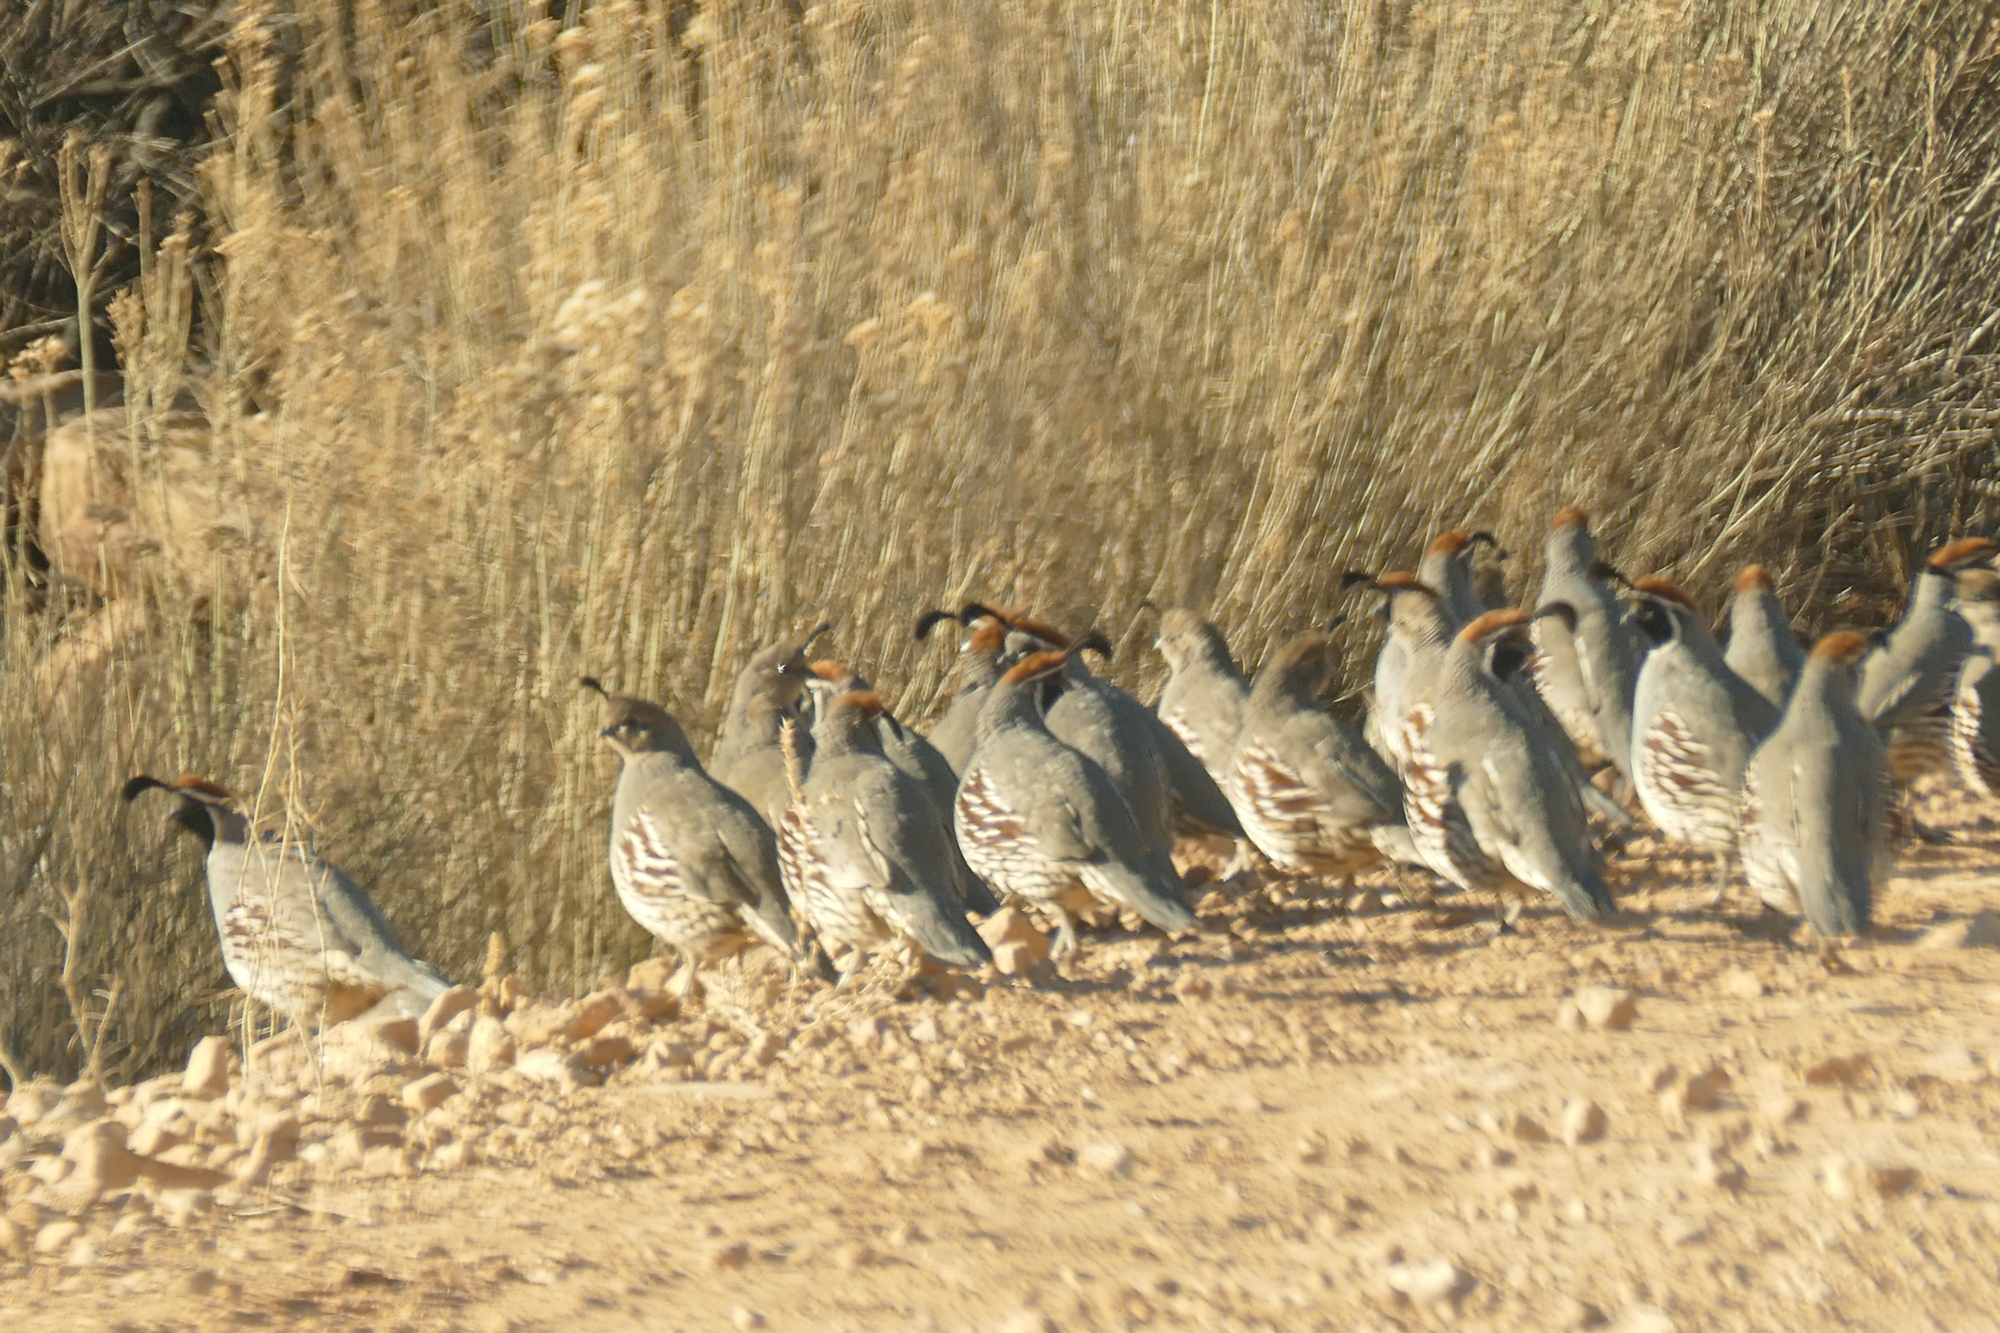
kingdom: Animalia
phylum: Chordata
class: Aves
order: Galliformes
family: Odontophoridae
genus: Callipepla
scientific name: Callipepla gambelii
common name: Gambel's quail
